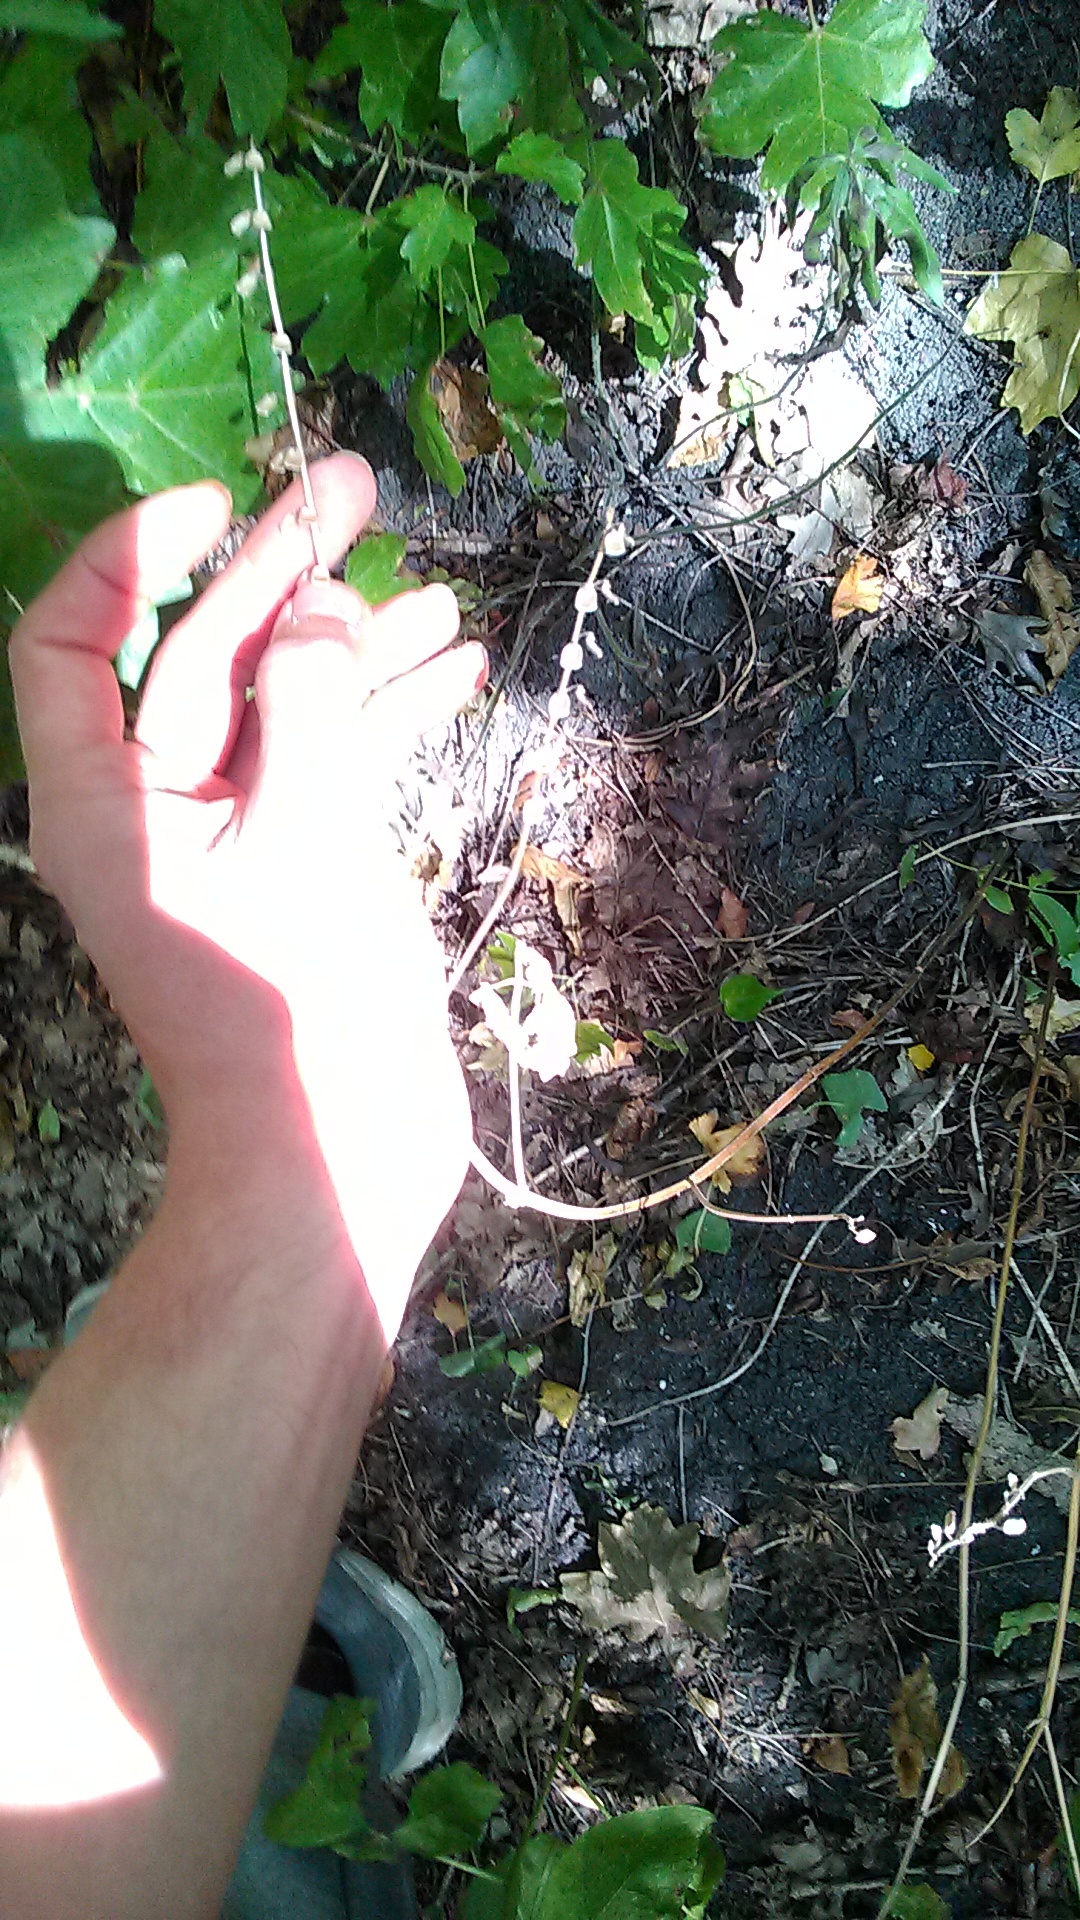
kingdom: Plantae
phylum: Tracheophyta
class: Magnoliopsida
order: Lamiales
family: Lamiaceae
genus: Scutellaria
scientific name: Scutellaria altissima
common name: Somerset skullcap
